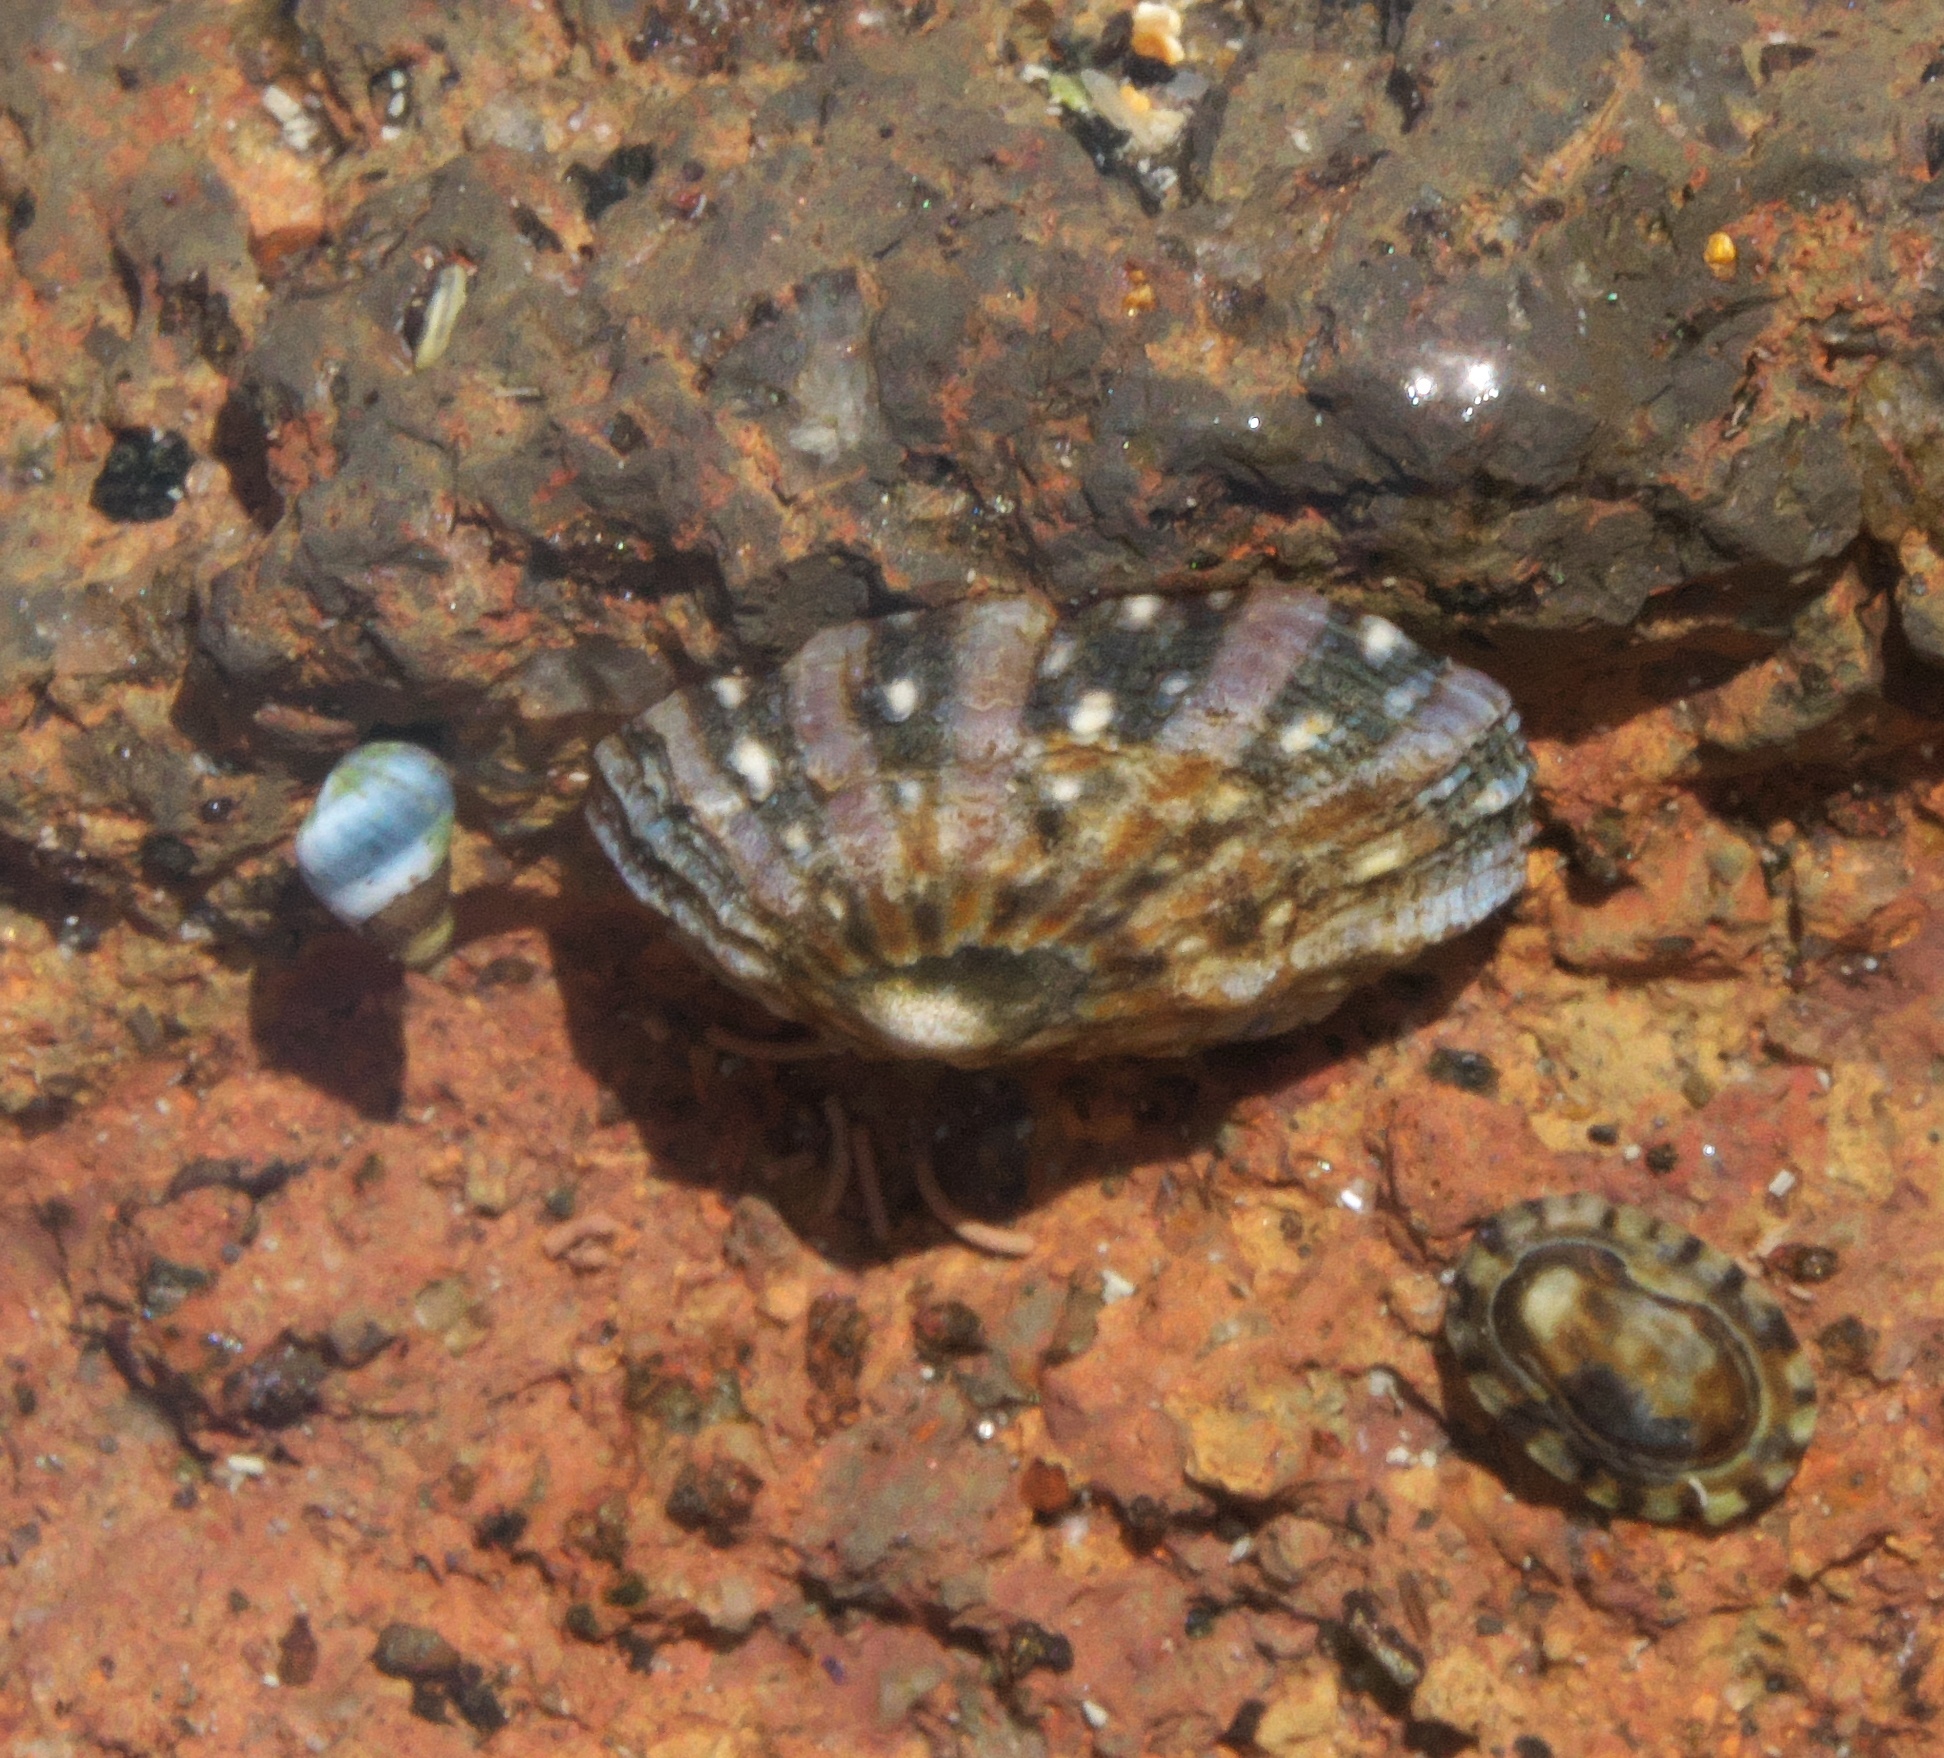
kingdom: Animalia
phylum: Mollusca
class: Gastropoda
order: Littorinimorpha
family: Littorinidae
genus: Austrolittorina
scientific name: Austrolittorina antipodum
